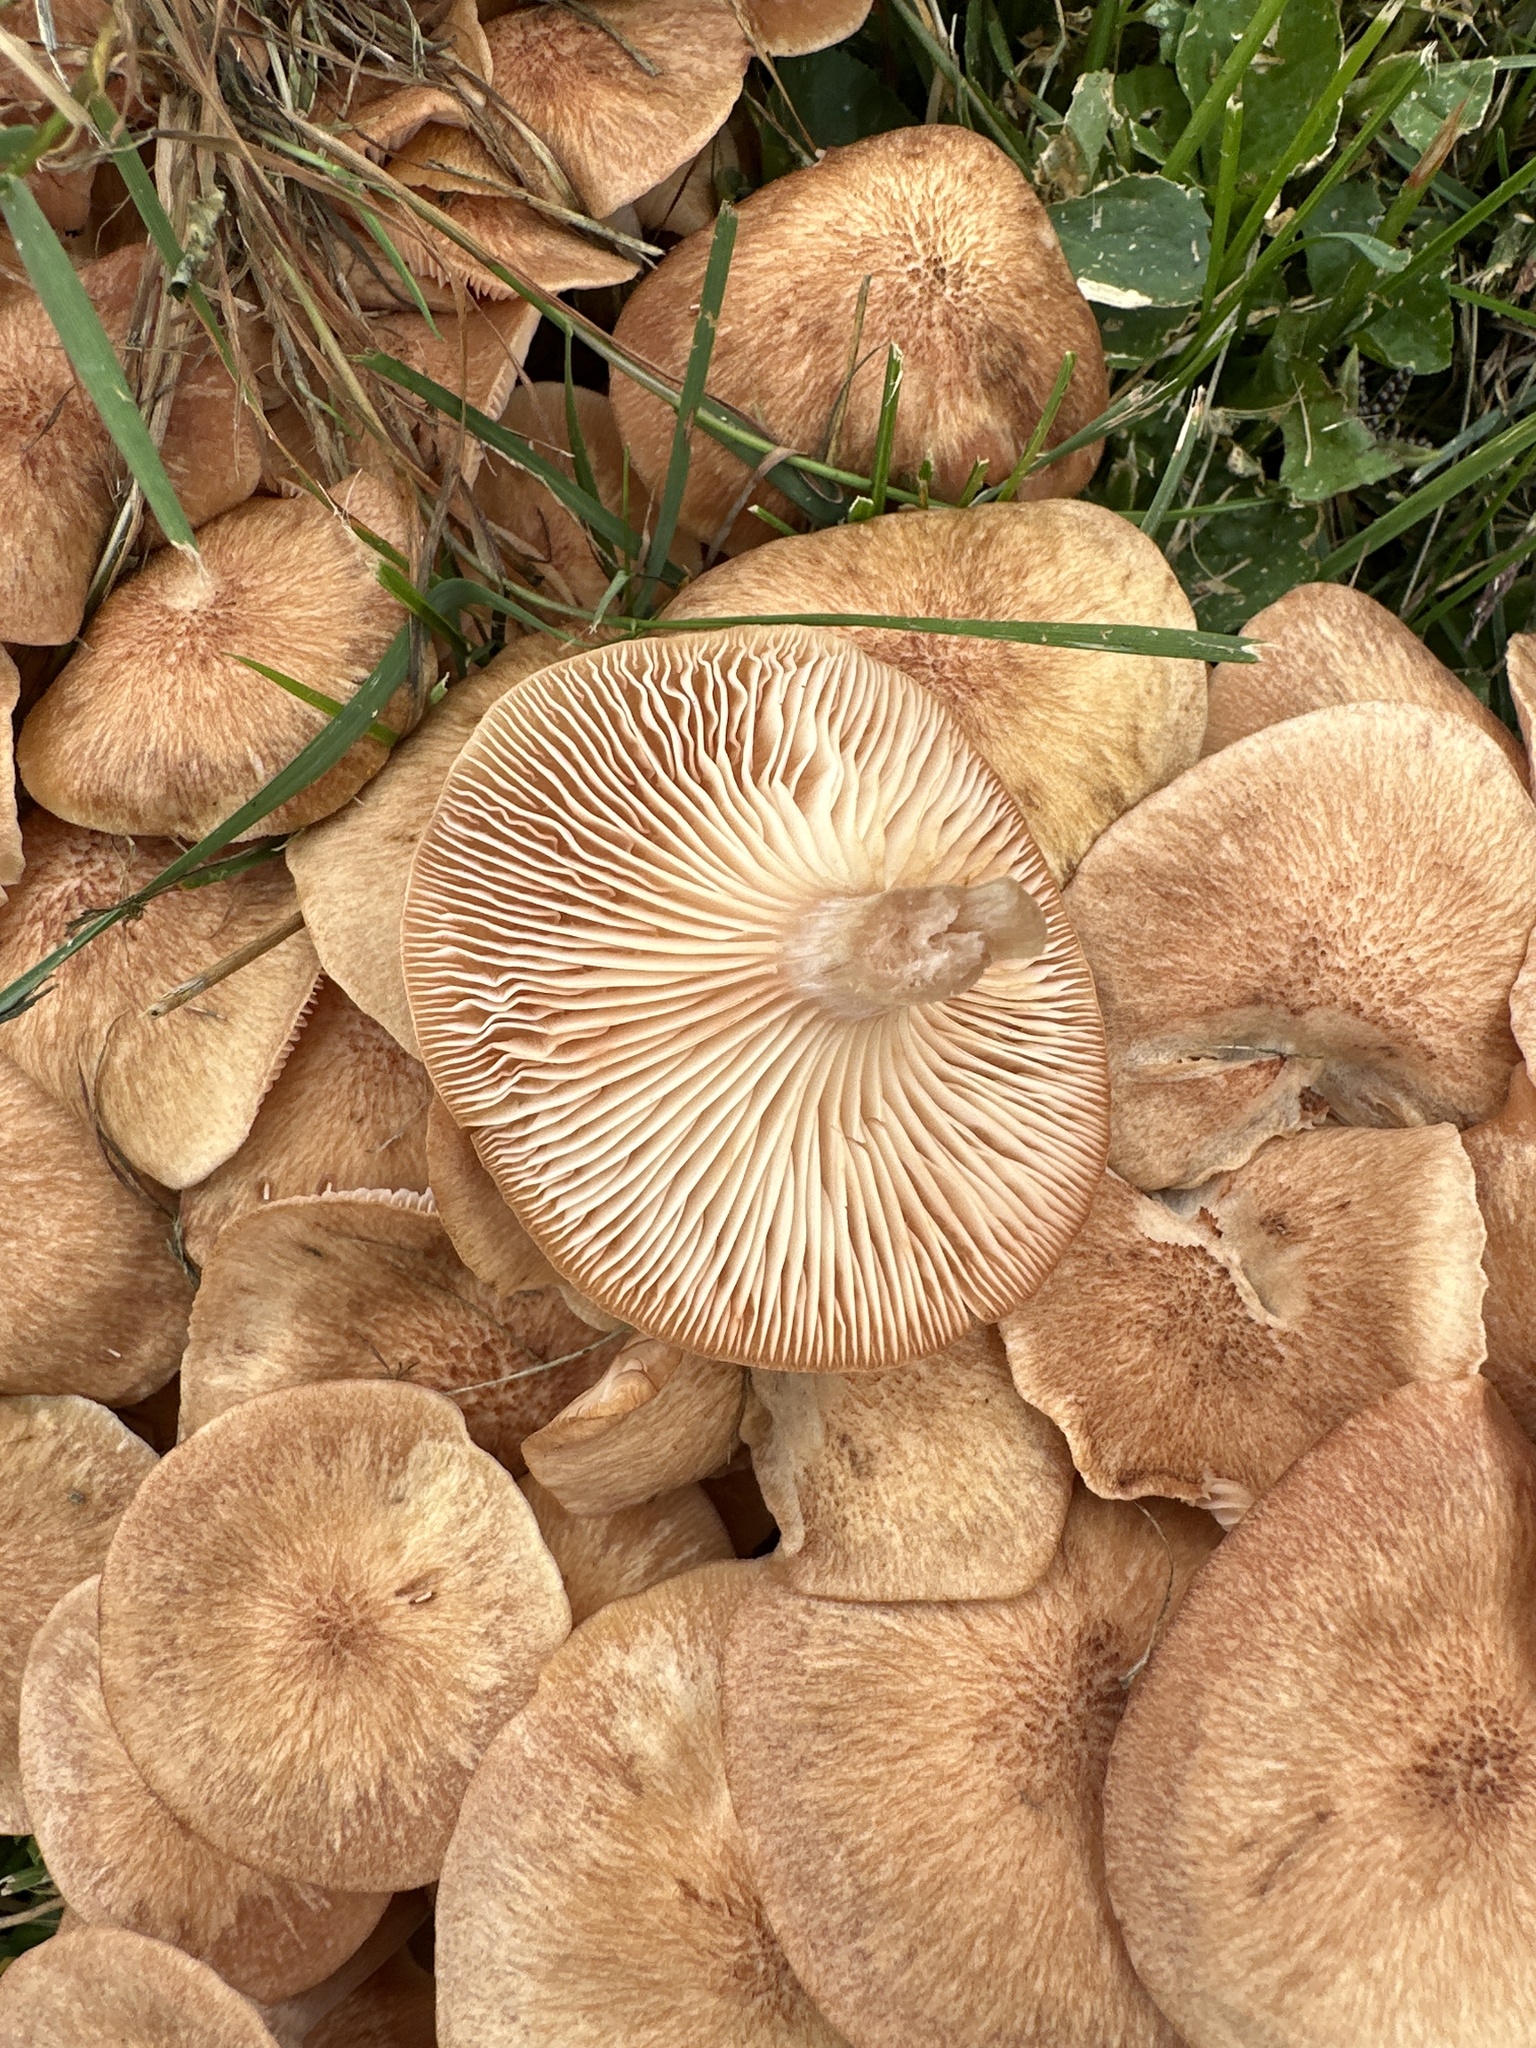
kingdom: Fungi
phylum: Basidiomycota
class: Agaricomycetes
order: Agaricales
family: Physalacriaceae
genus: Desarmillaria
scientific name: Desarmillaria caespitosa
